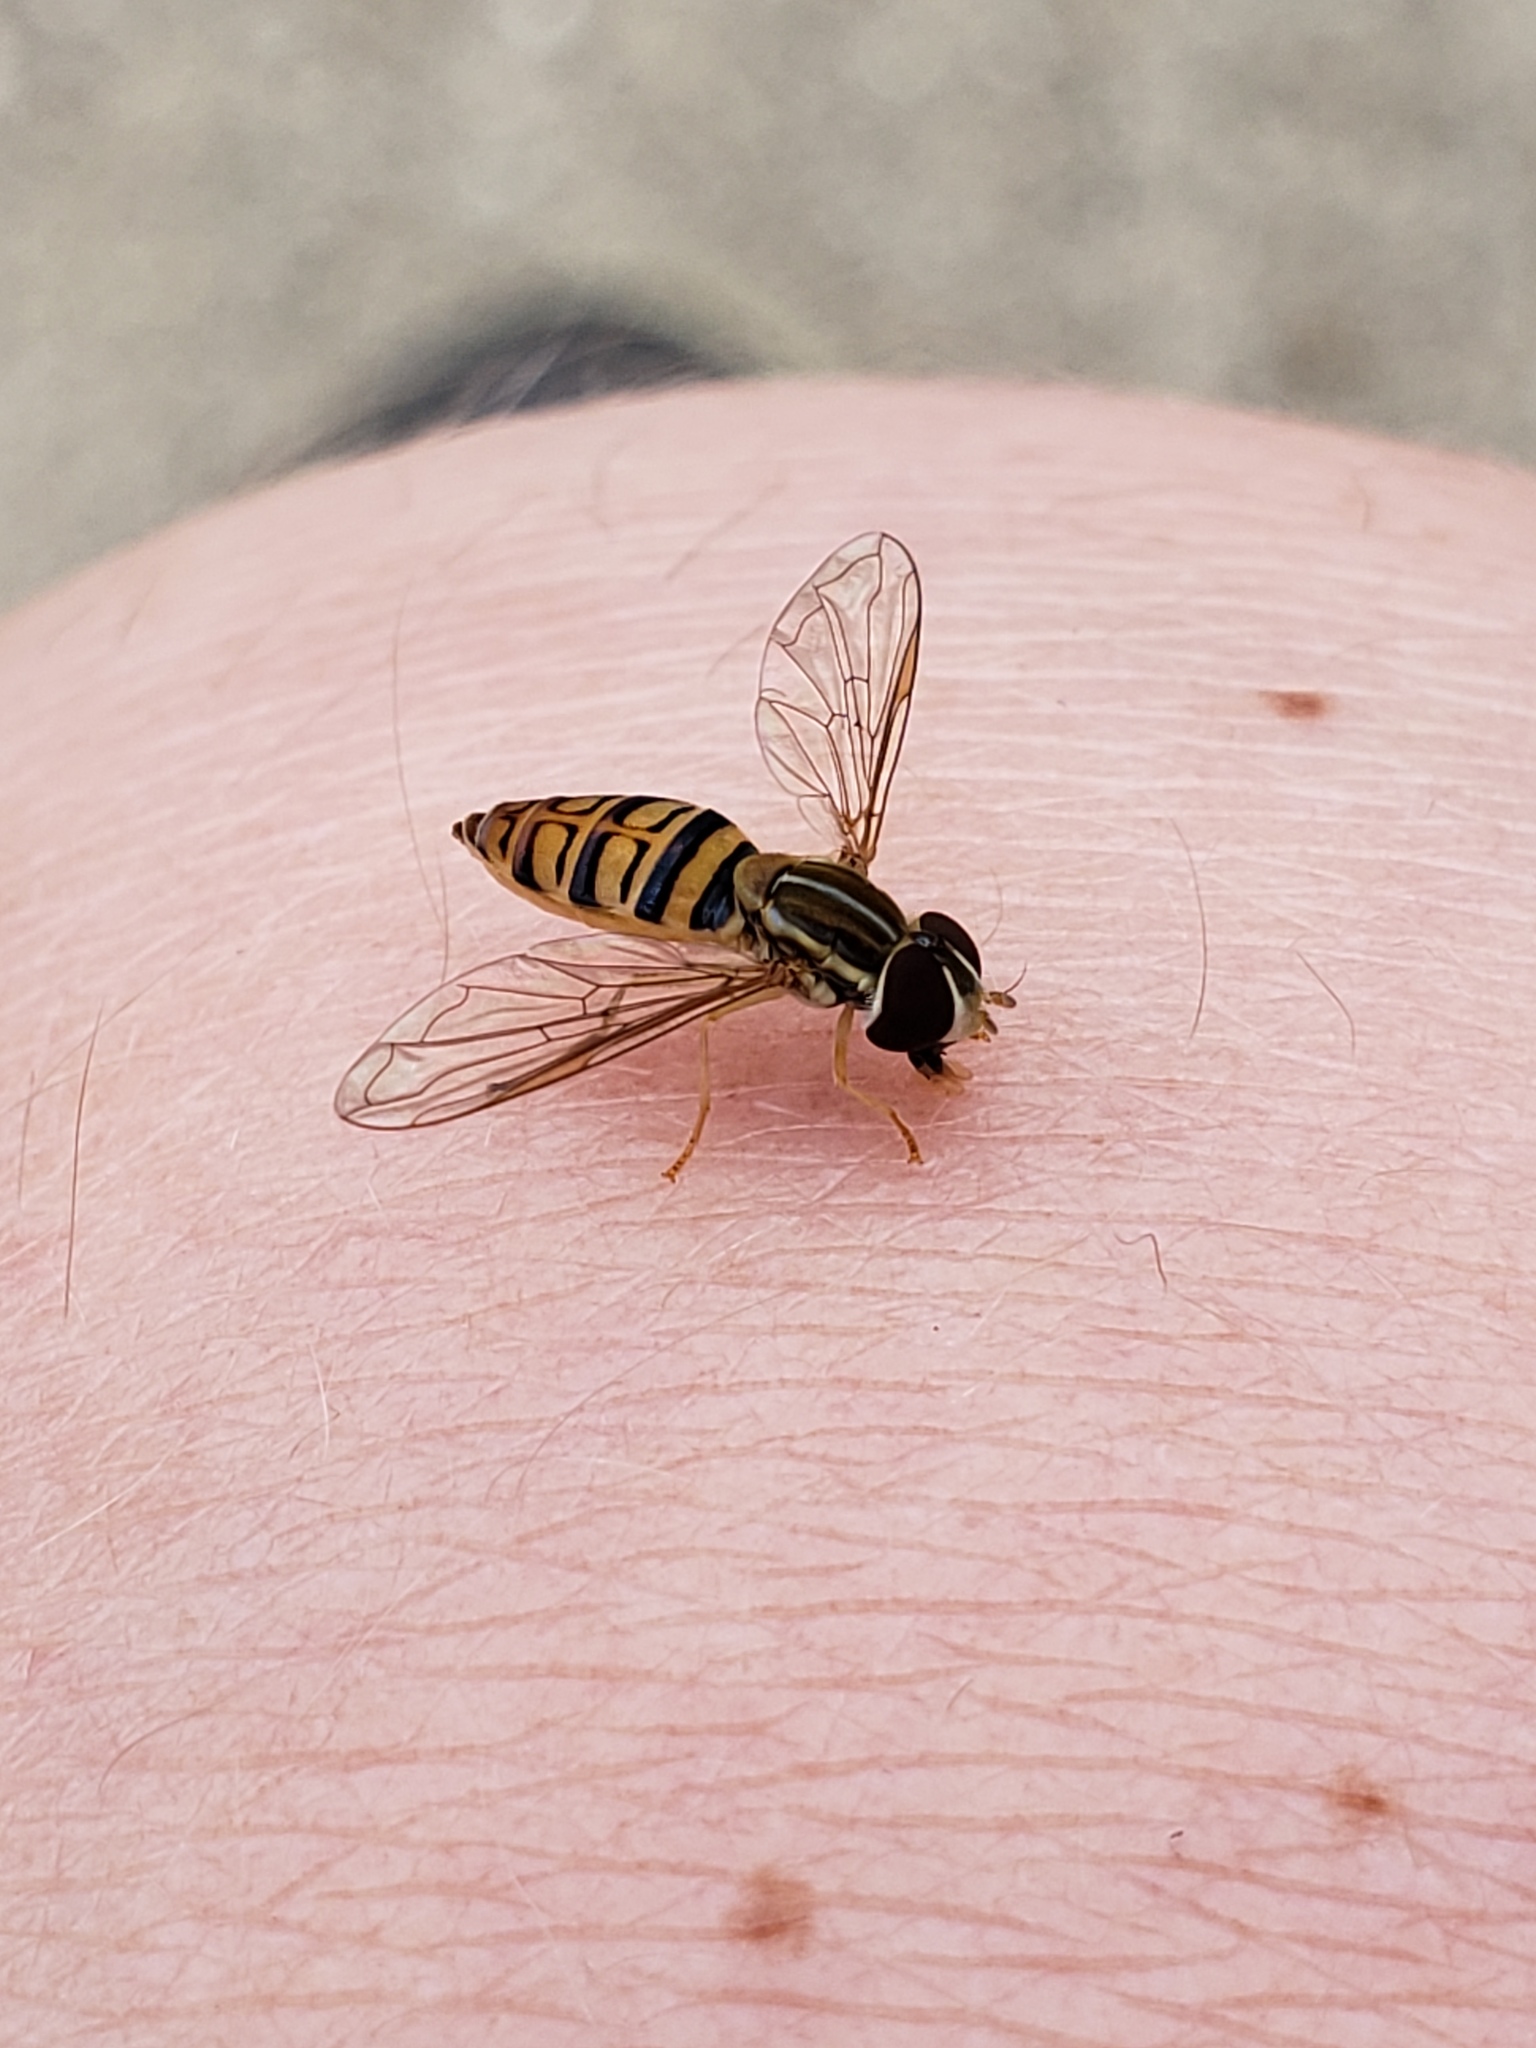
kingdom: Animalia
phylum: Arthropoda
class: Insecta
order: Diptera
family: Syrphidae
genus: Toxomerus
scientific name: Toxomerus politus
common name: Maize calligrapher
